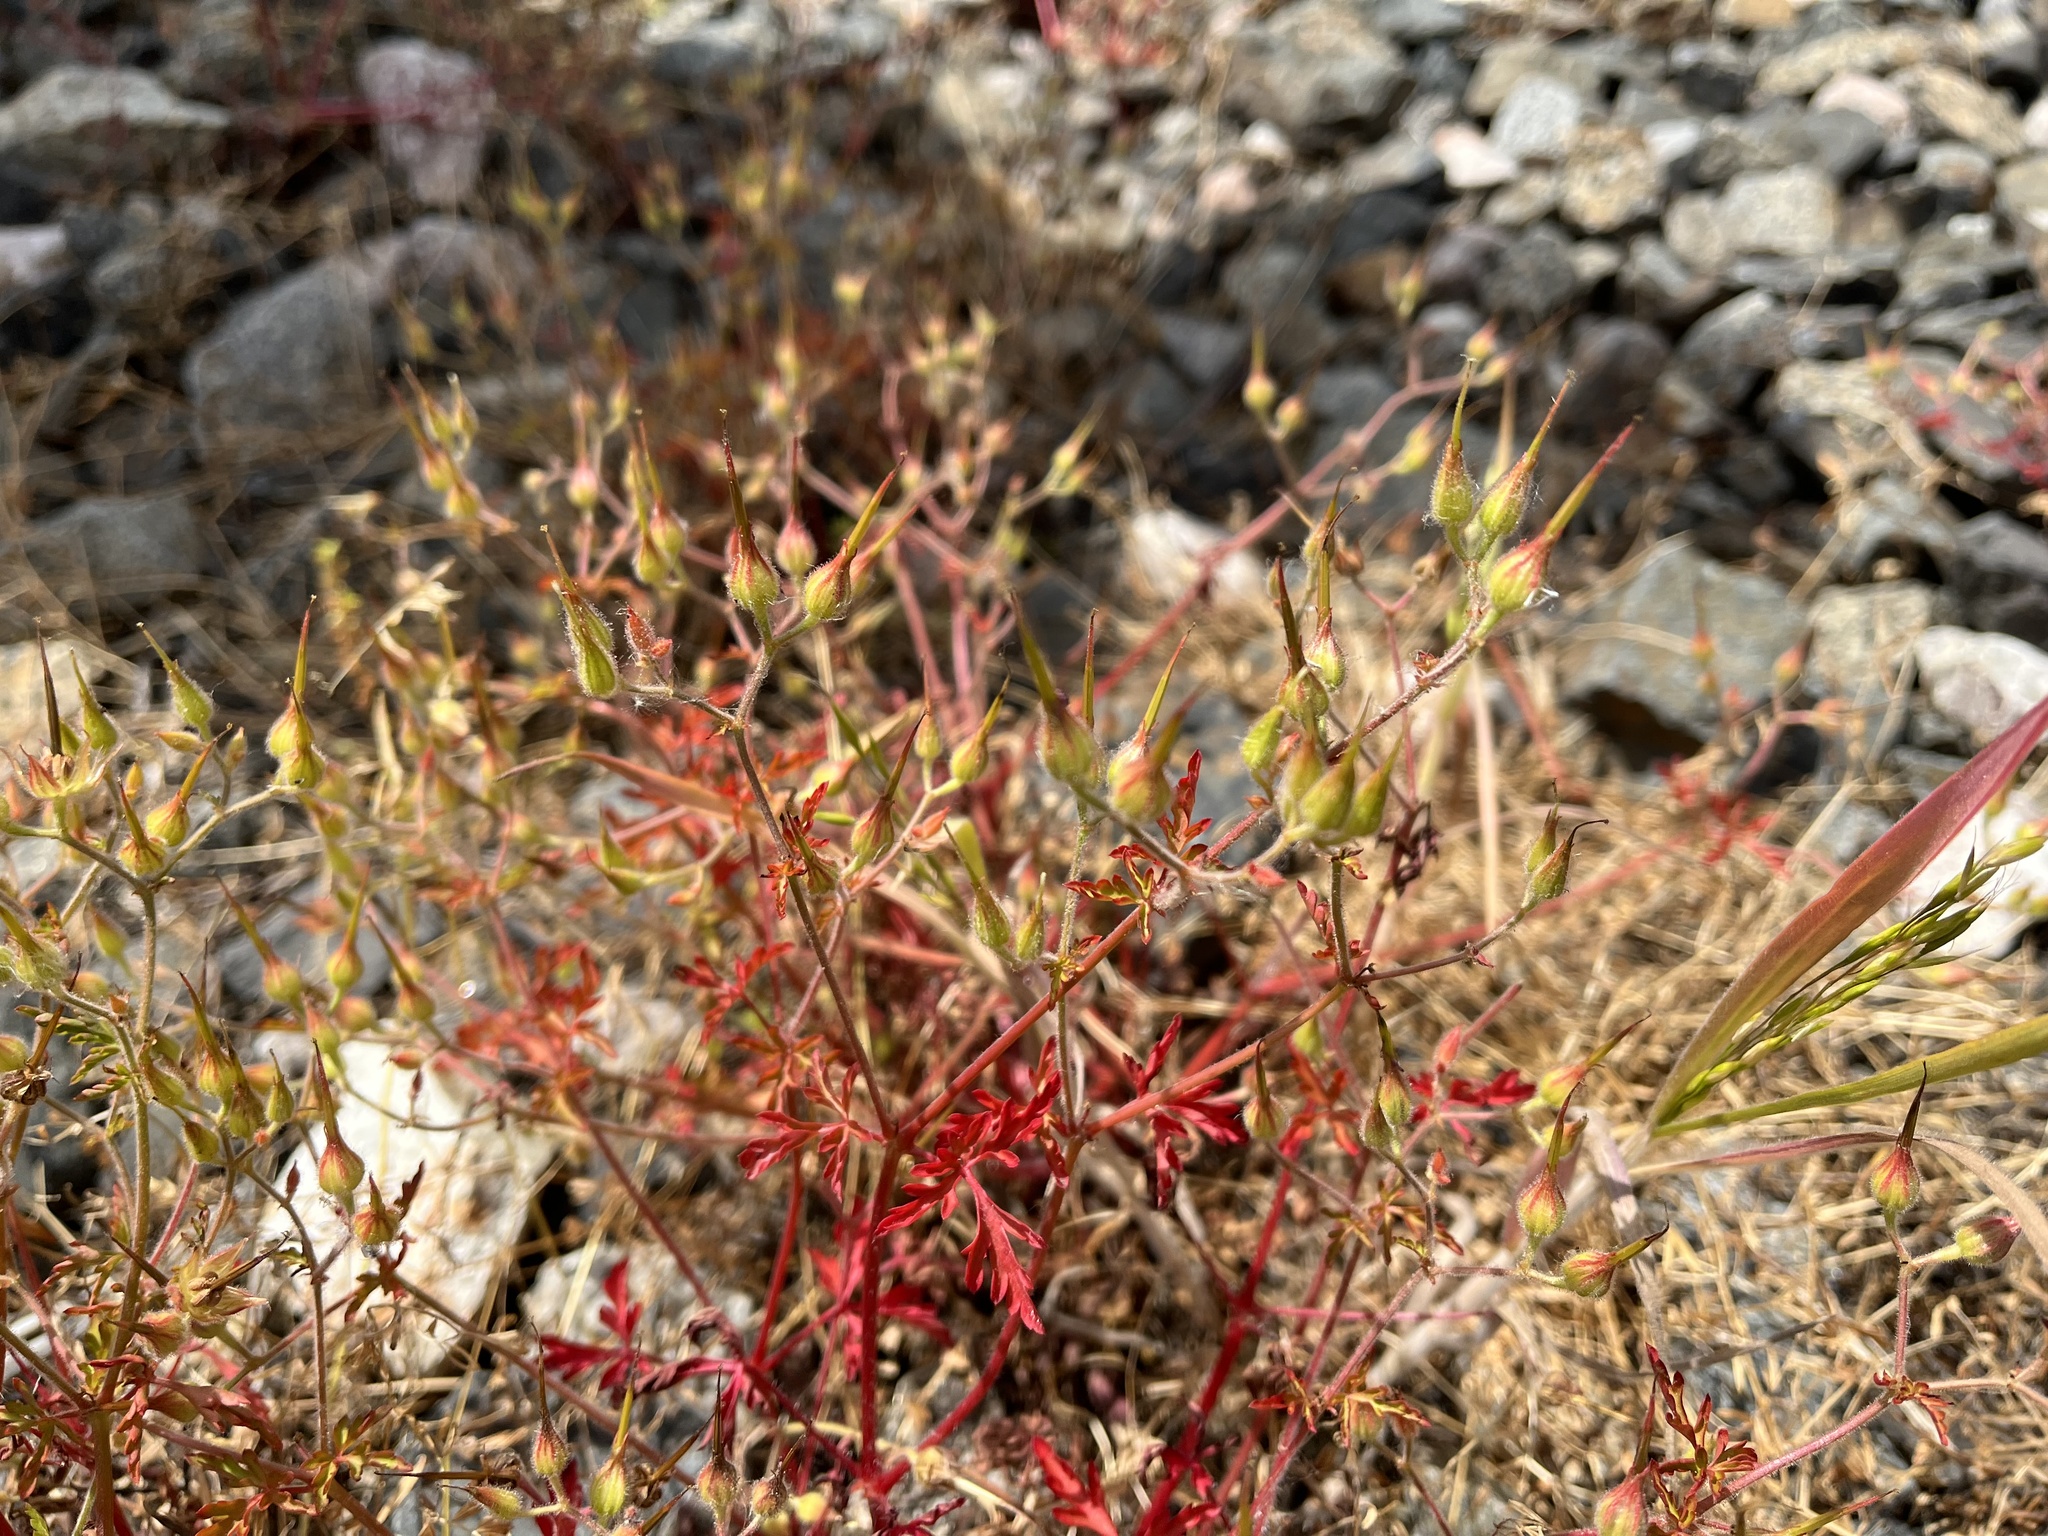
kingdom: Plantae
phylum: Tracheophyta
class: Magnoliopsida
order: Geraniales
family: Geraniaceae
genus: Geranium
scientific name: Geranium purpureum
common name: Little-robin
